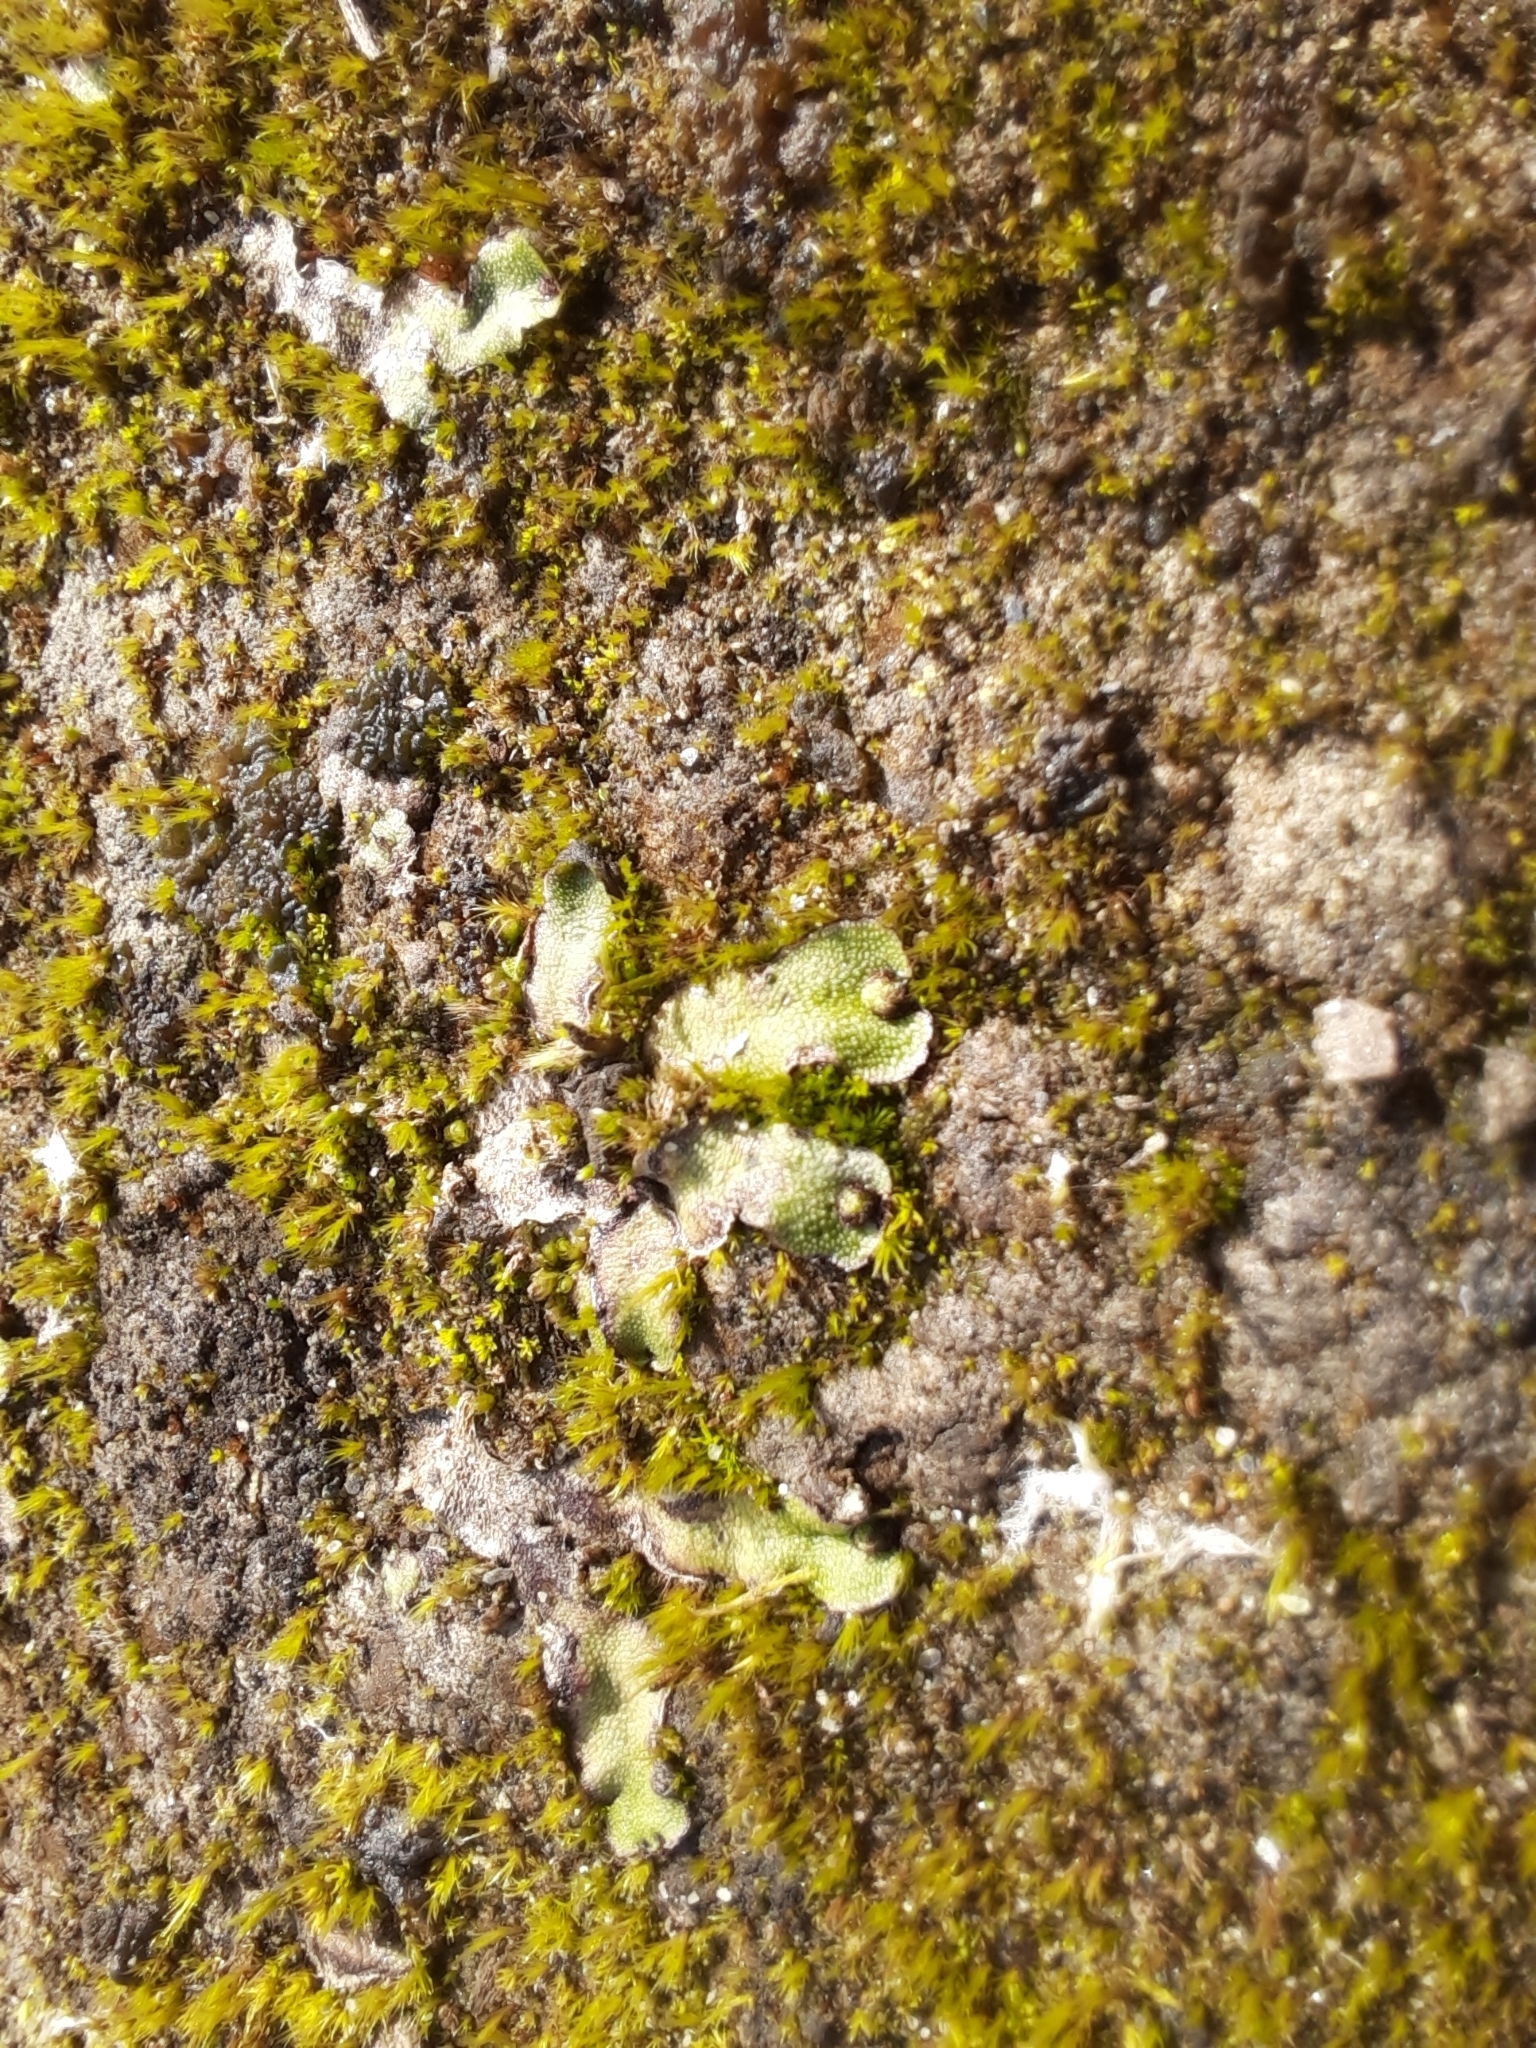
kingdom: Plantae
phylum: Marchantiophyta
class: Marchantiopsida
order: Marchantiales
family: Marchantiaceae
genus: Marchantia
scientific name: Marchantia quadrata
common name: Narrow mushroom-headed liverwort
